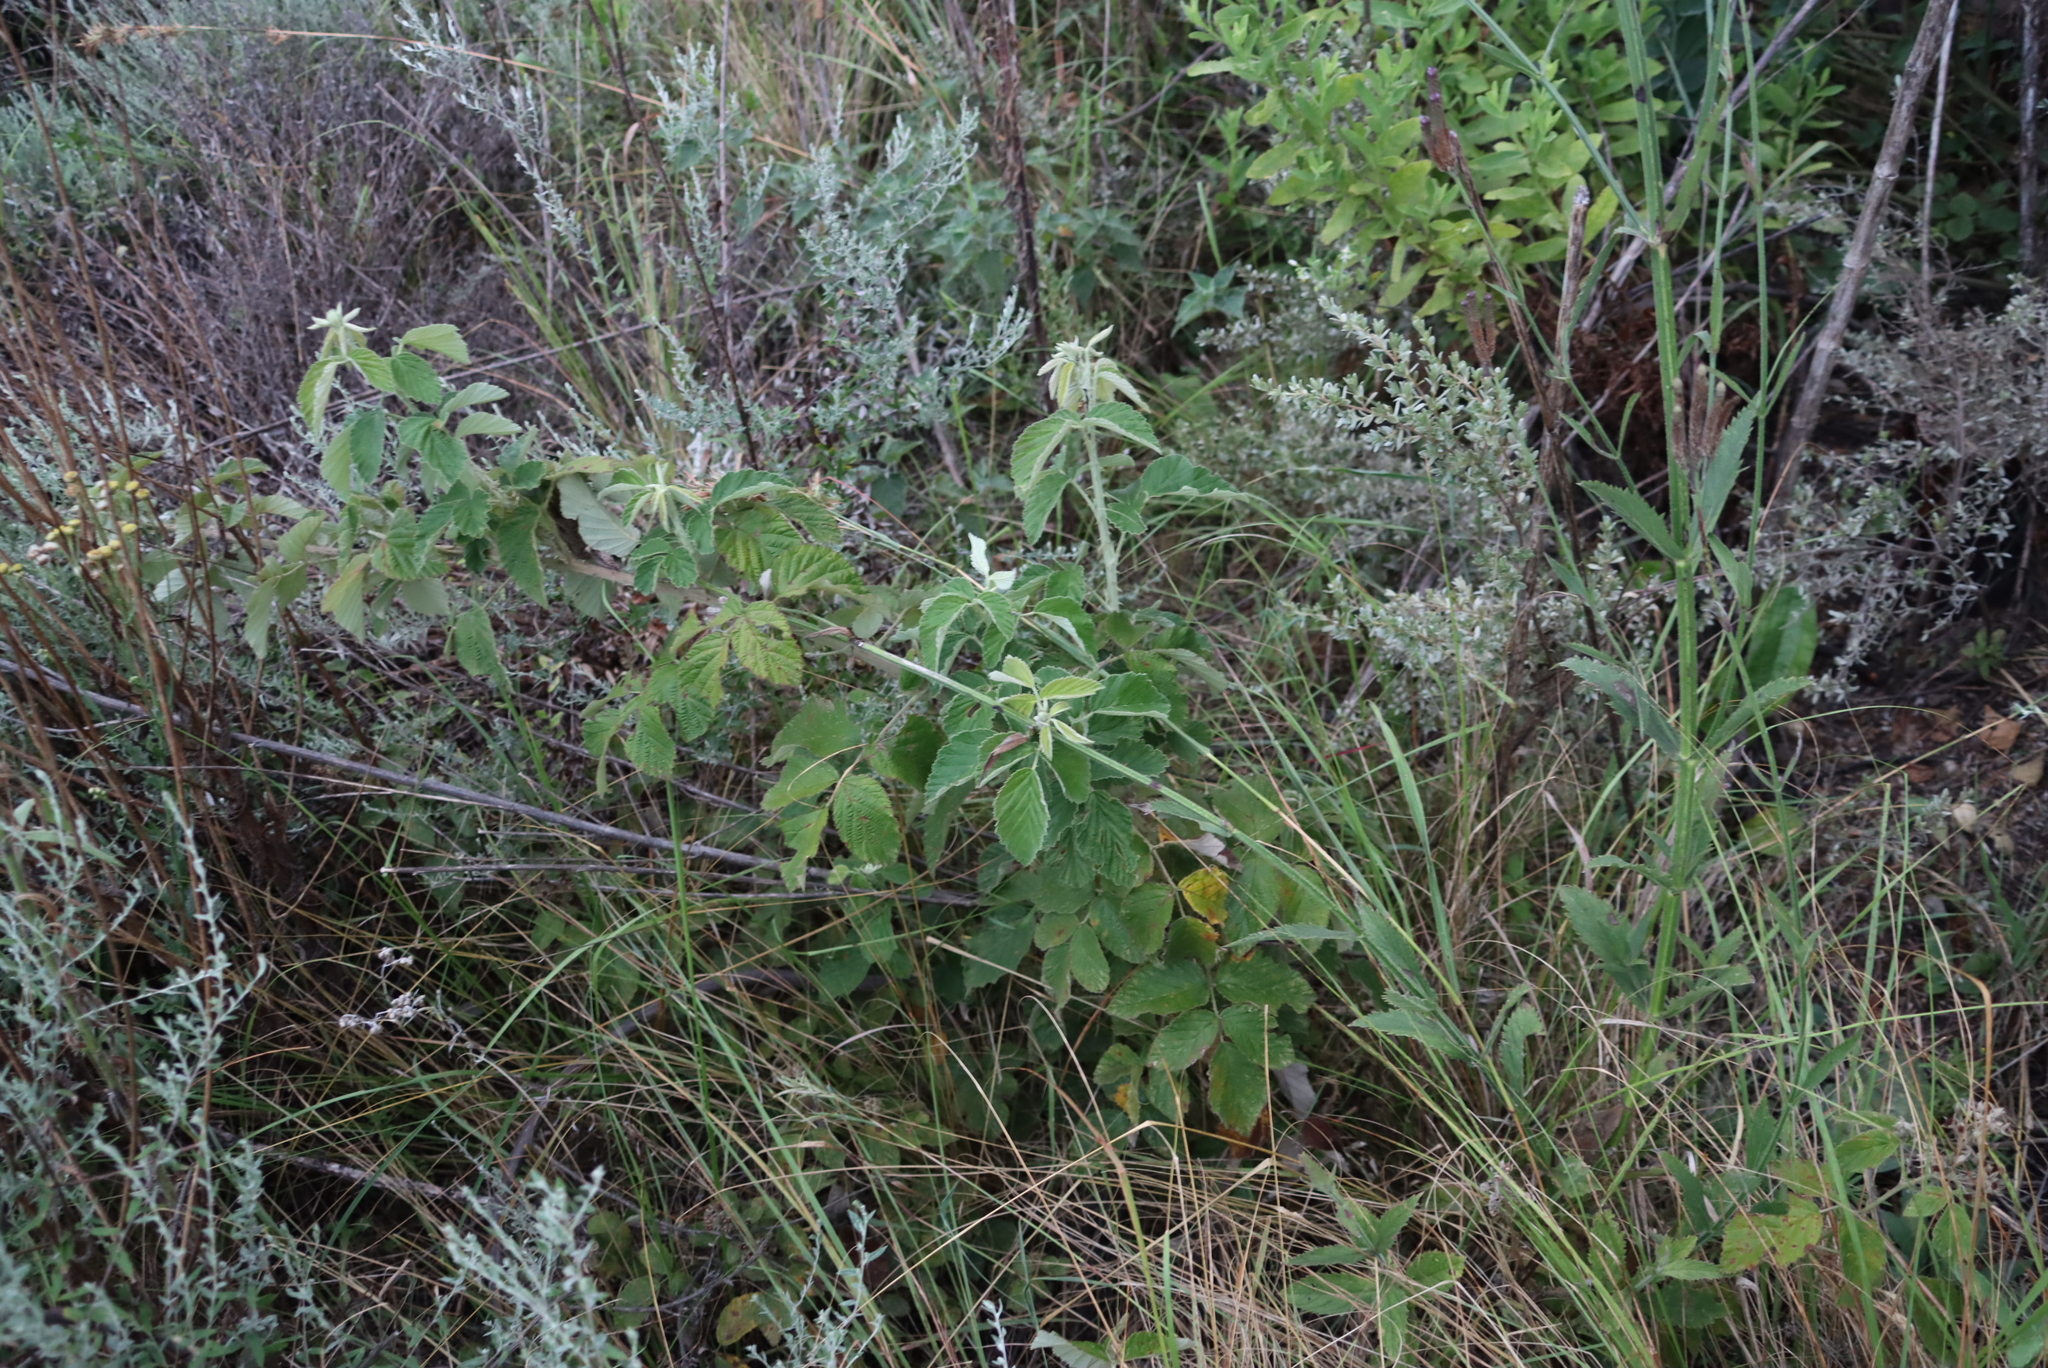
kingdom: Plantae
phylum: Tracheophyta
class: Magnoliopsida
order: Rosales
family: Rosaceae
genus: Rubus
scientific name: Rubus rigidus
